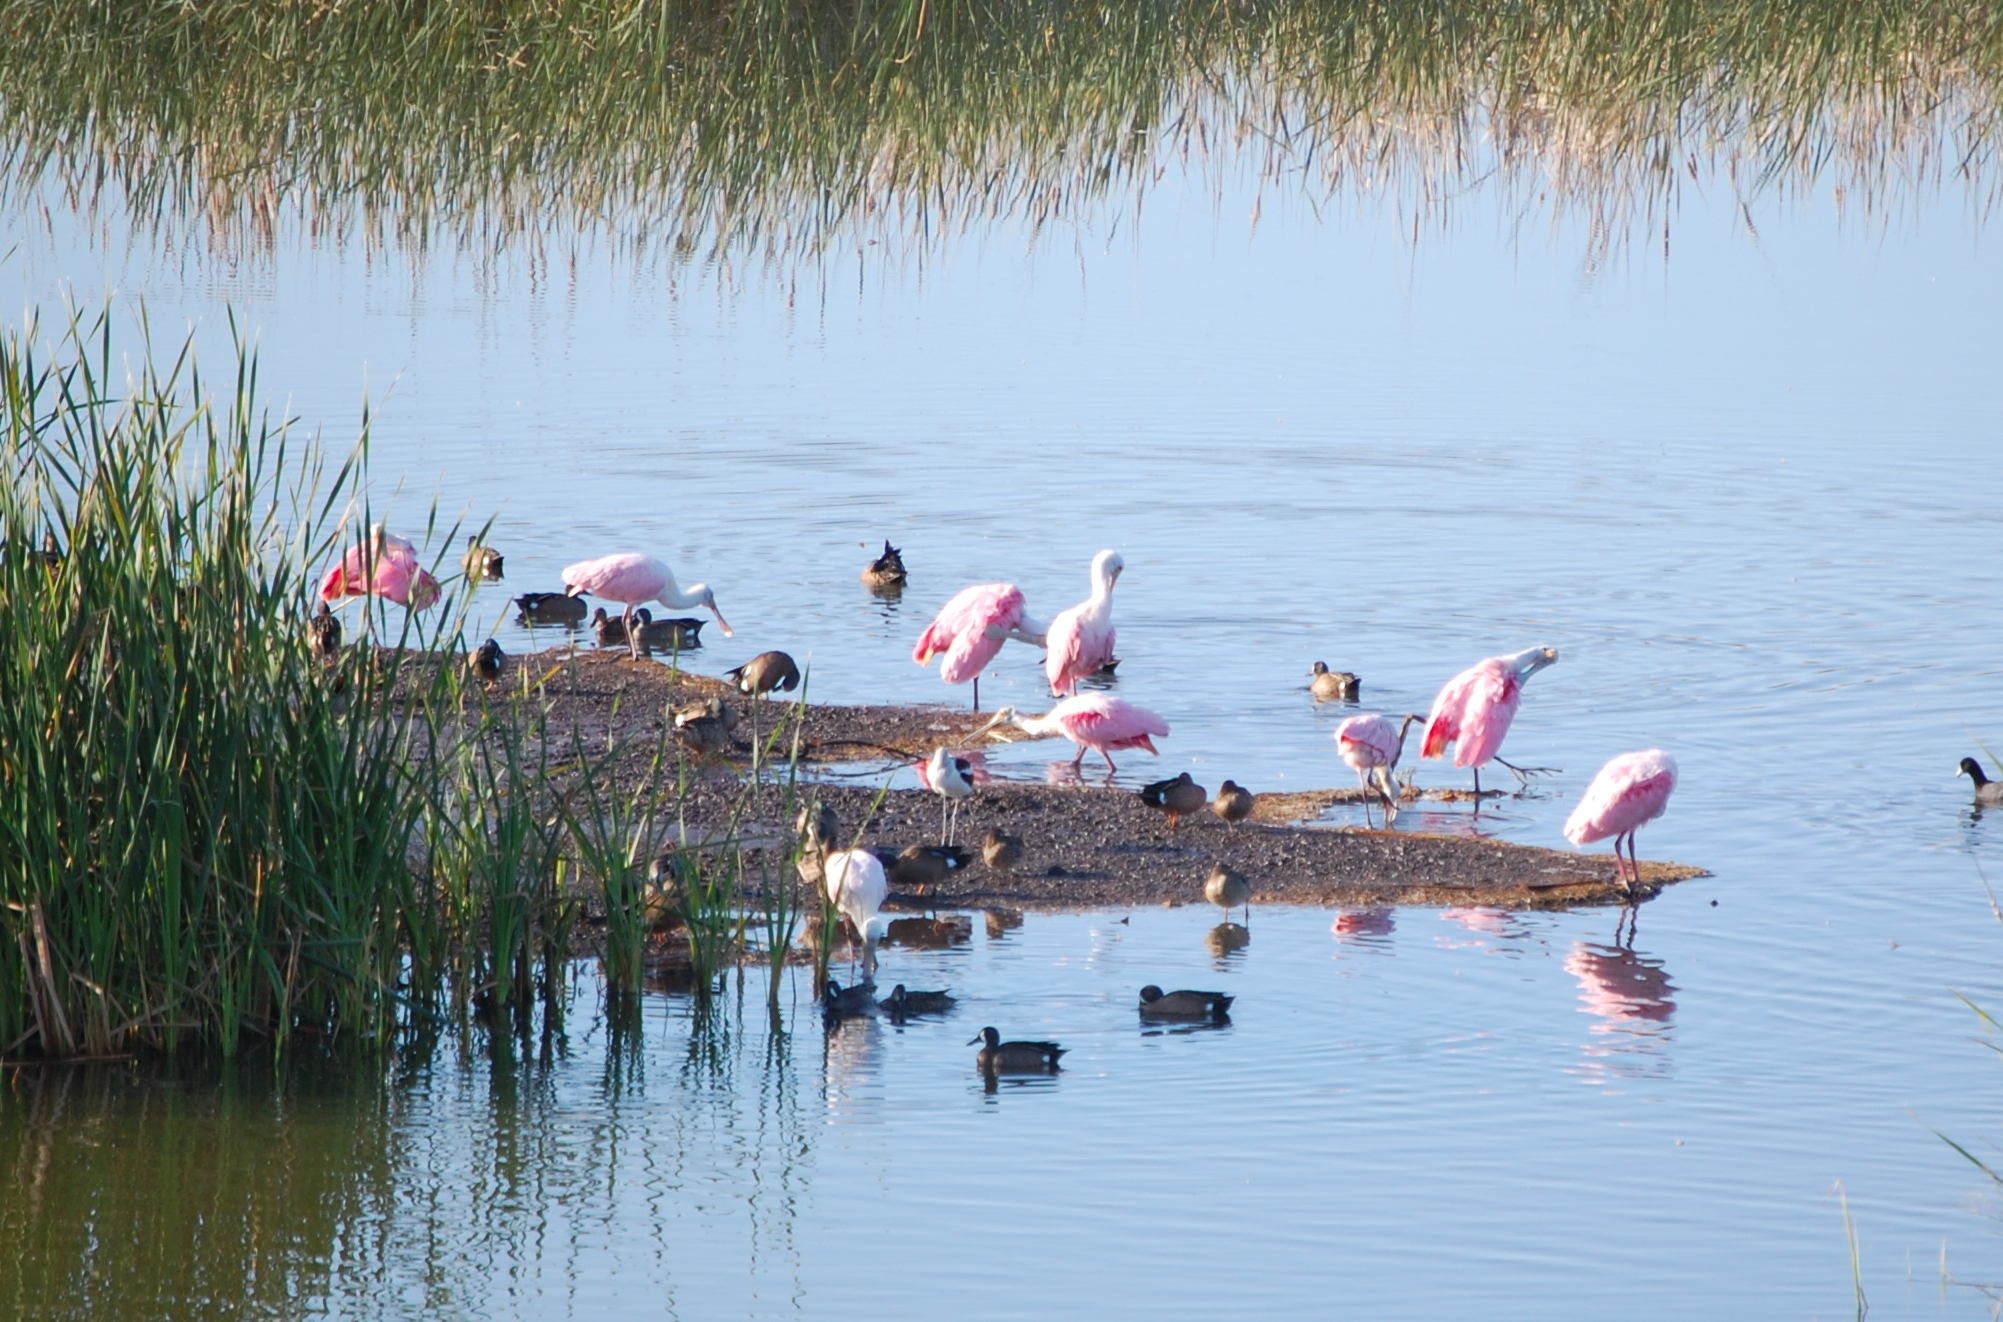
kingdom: Animalia
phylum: Chordata
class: Aves
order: Anseriformes
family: Anatidae
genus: Spatula
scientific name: Spatula discors
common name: Blue-winged teal
